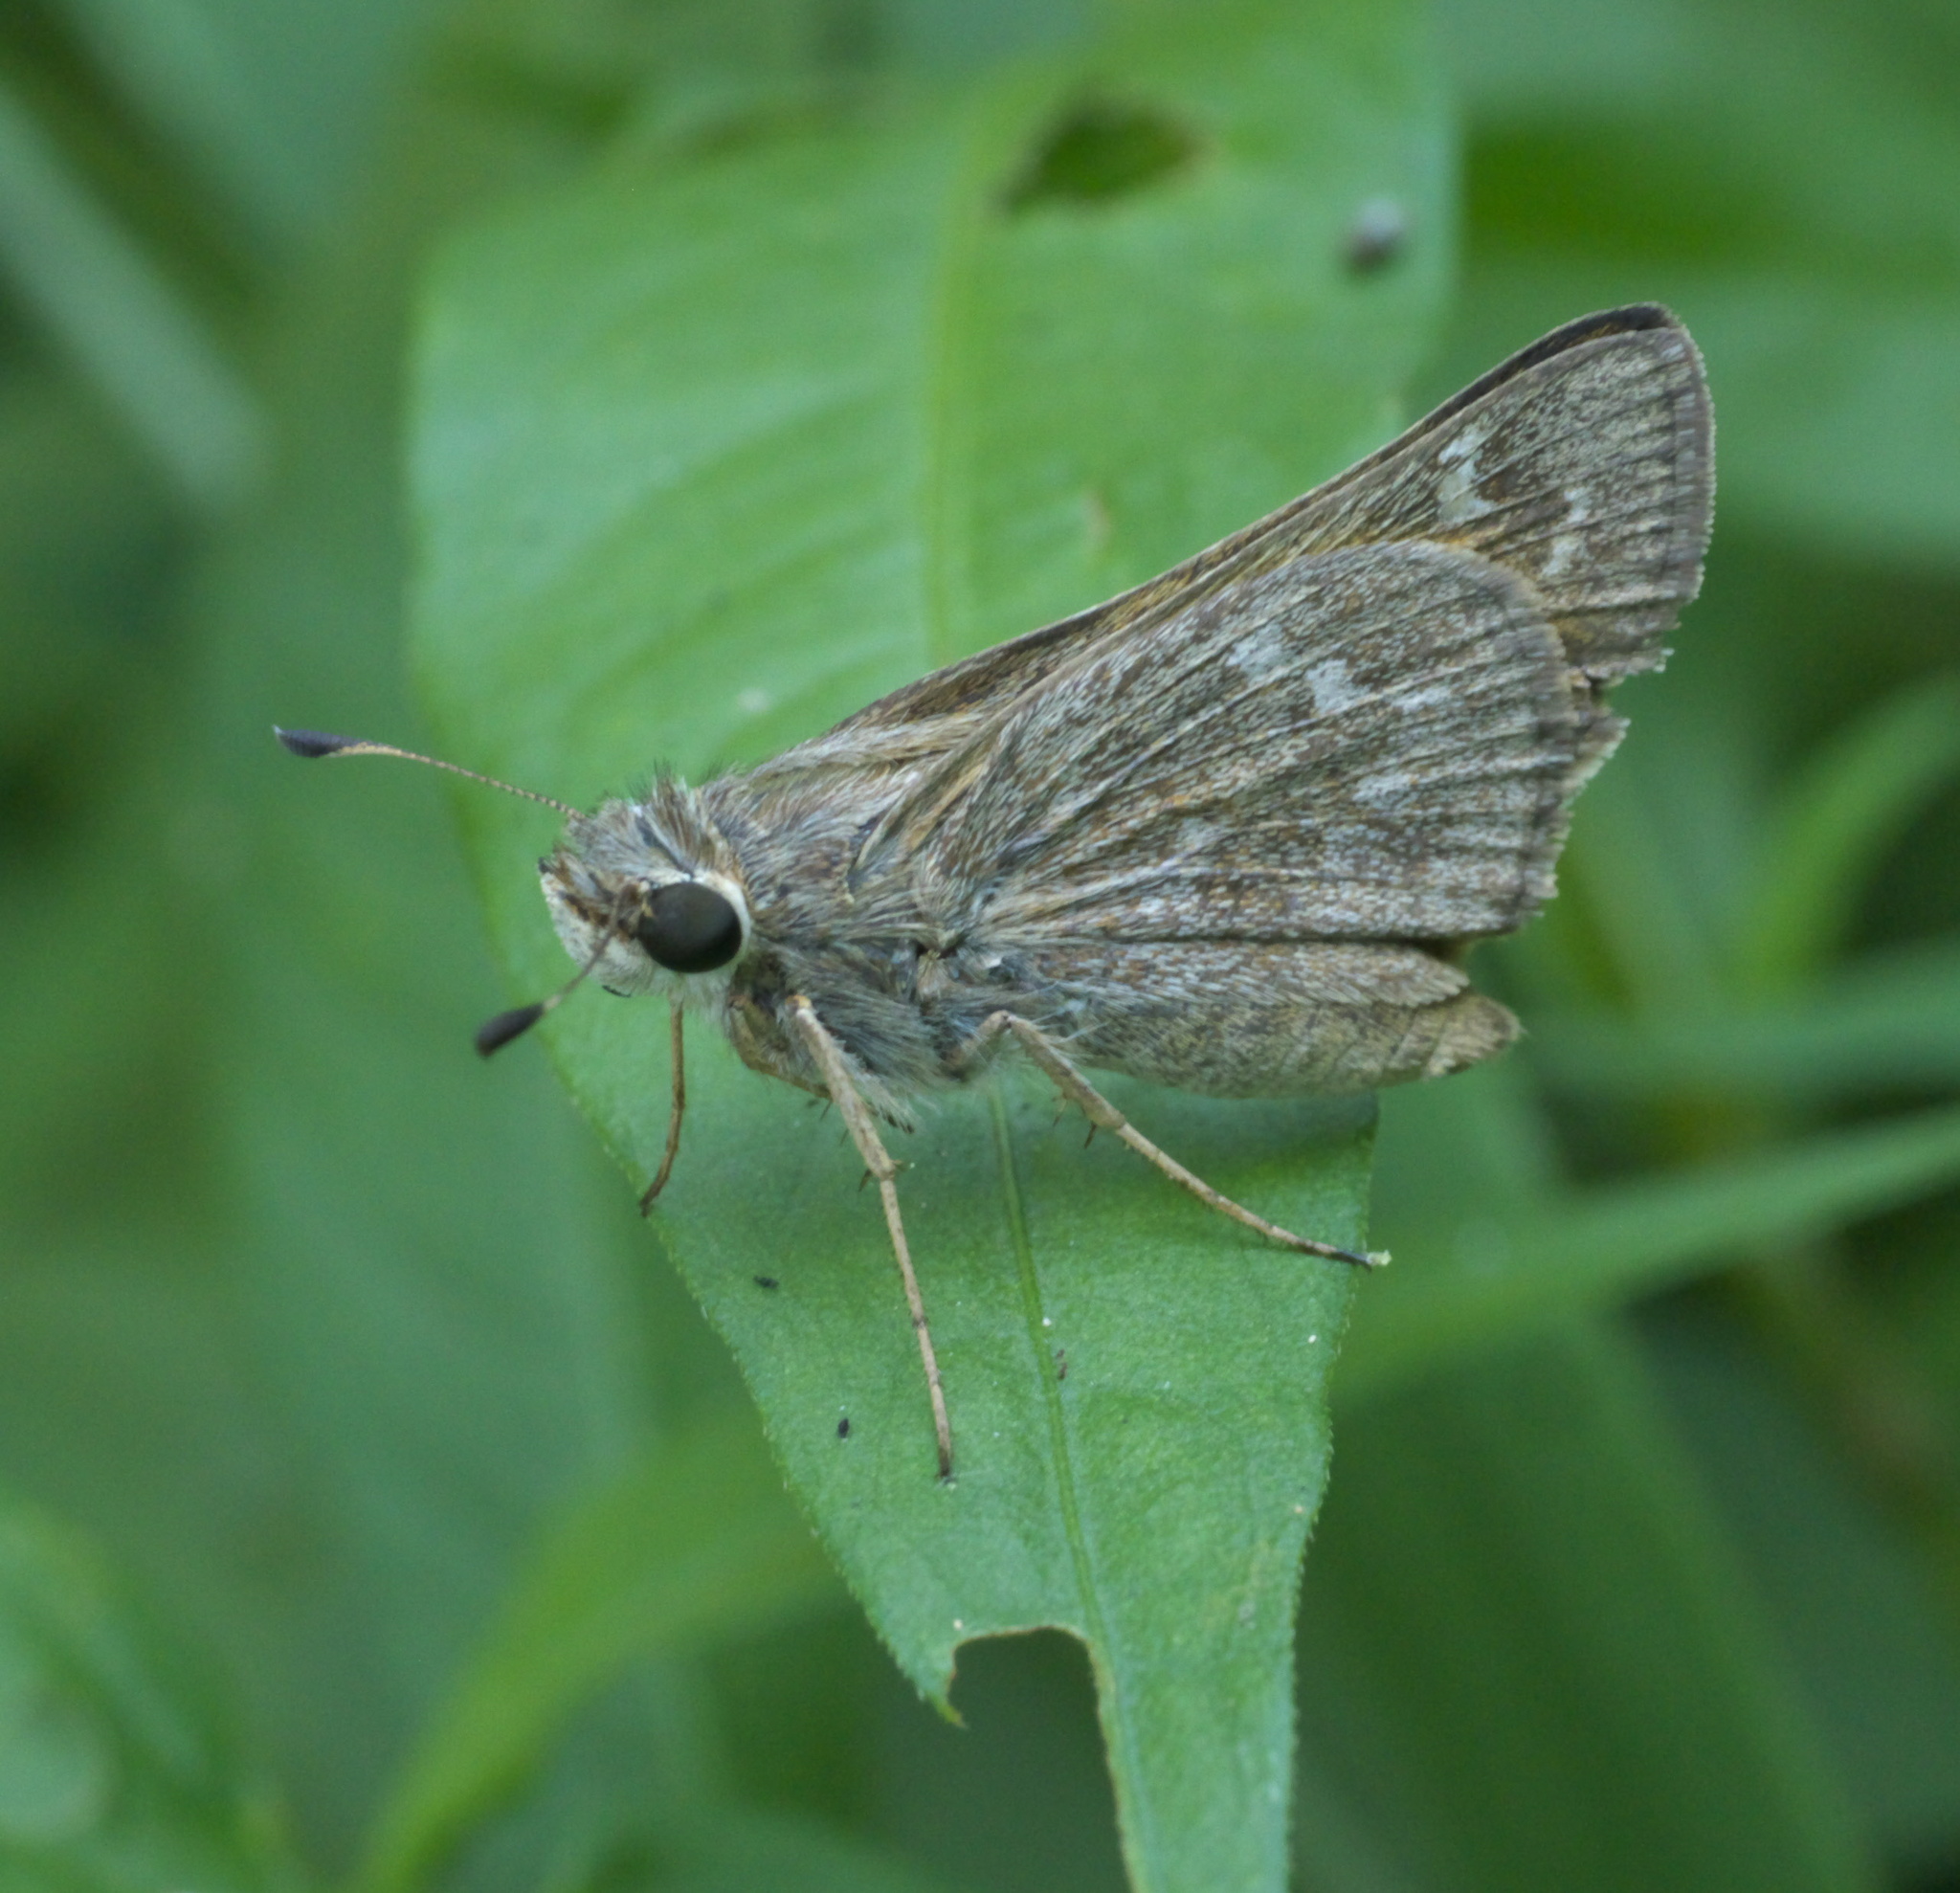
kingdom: Animalia
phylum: Arthropoda
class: Insecta
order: Lepidoptera
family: Hesperiidae
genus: Atalopedes
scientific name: Atalopedes
